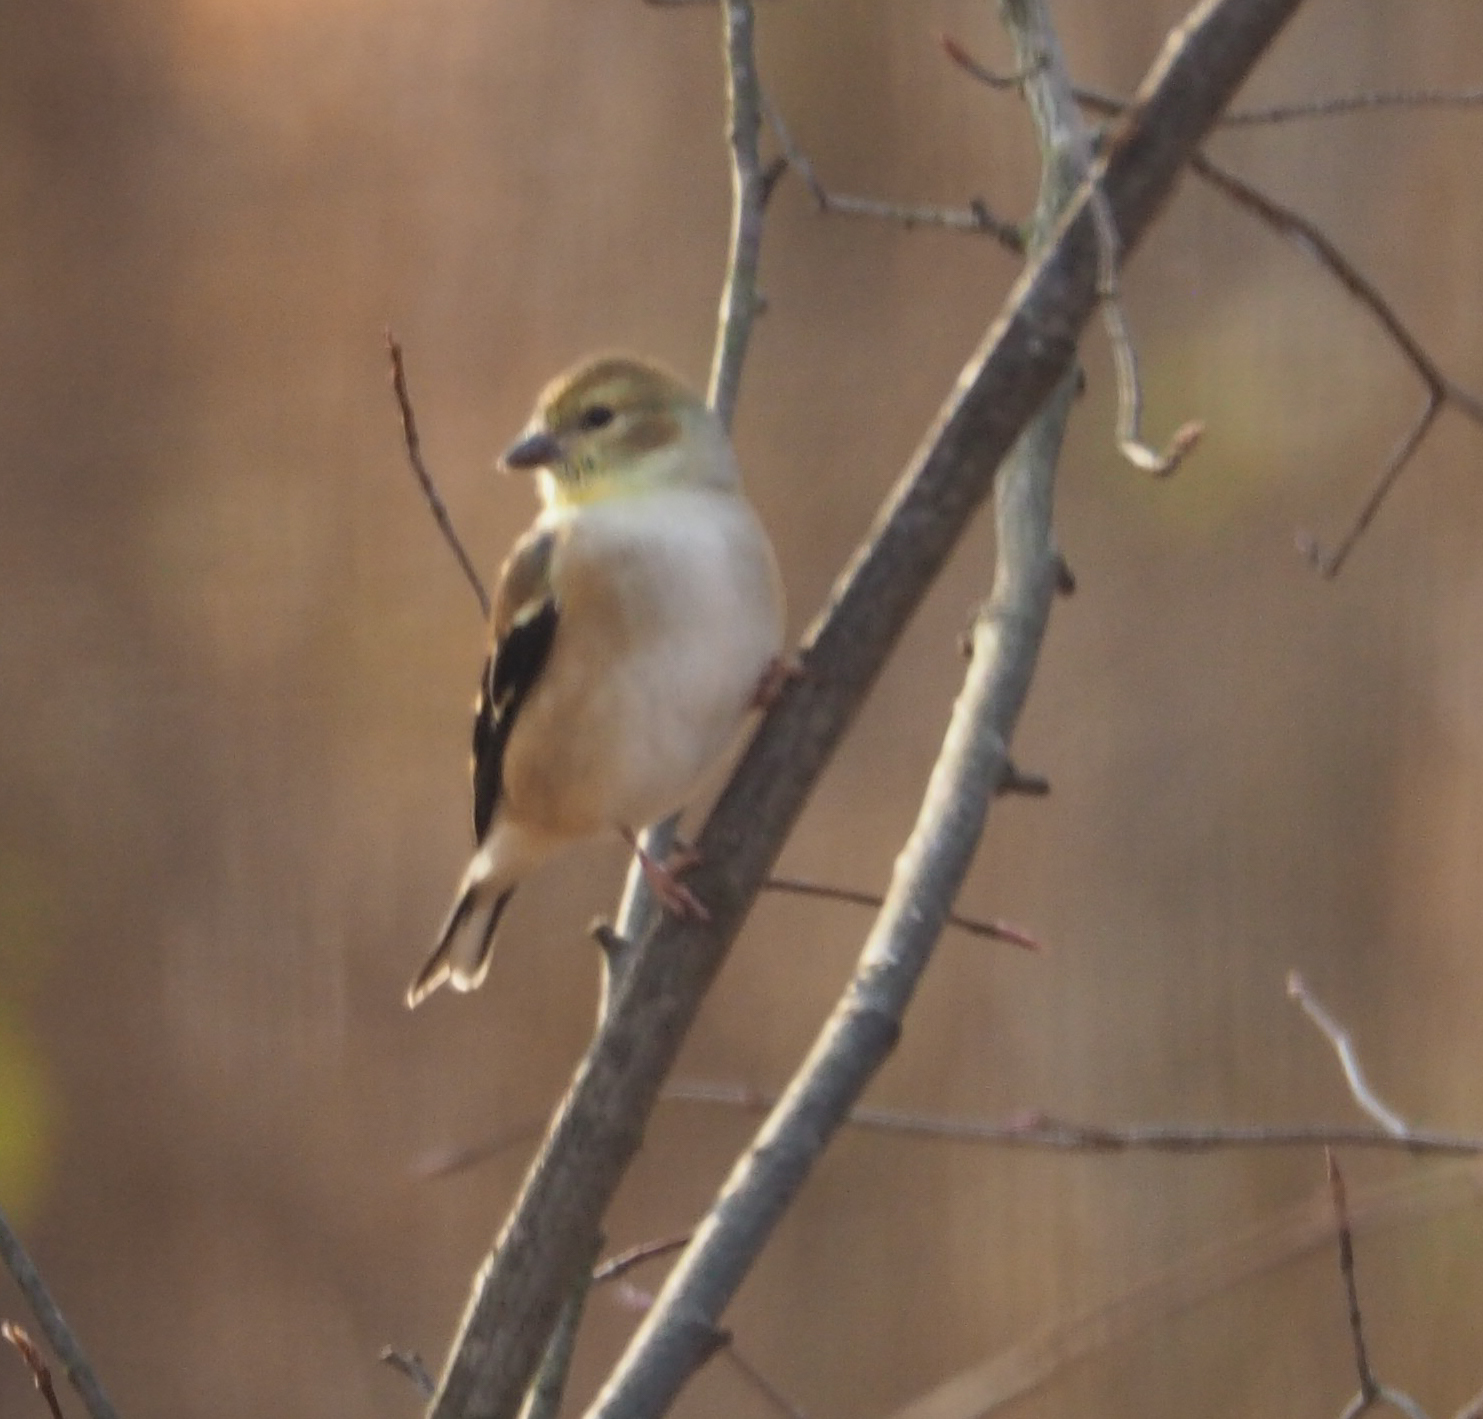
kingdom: Animalia
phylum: Chordata
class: Aves
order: Passeriformes
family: Fringillidae
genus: Spinus
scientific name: Spinus tristis
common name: American goldfinch
